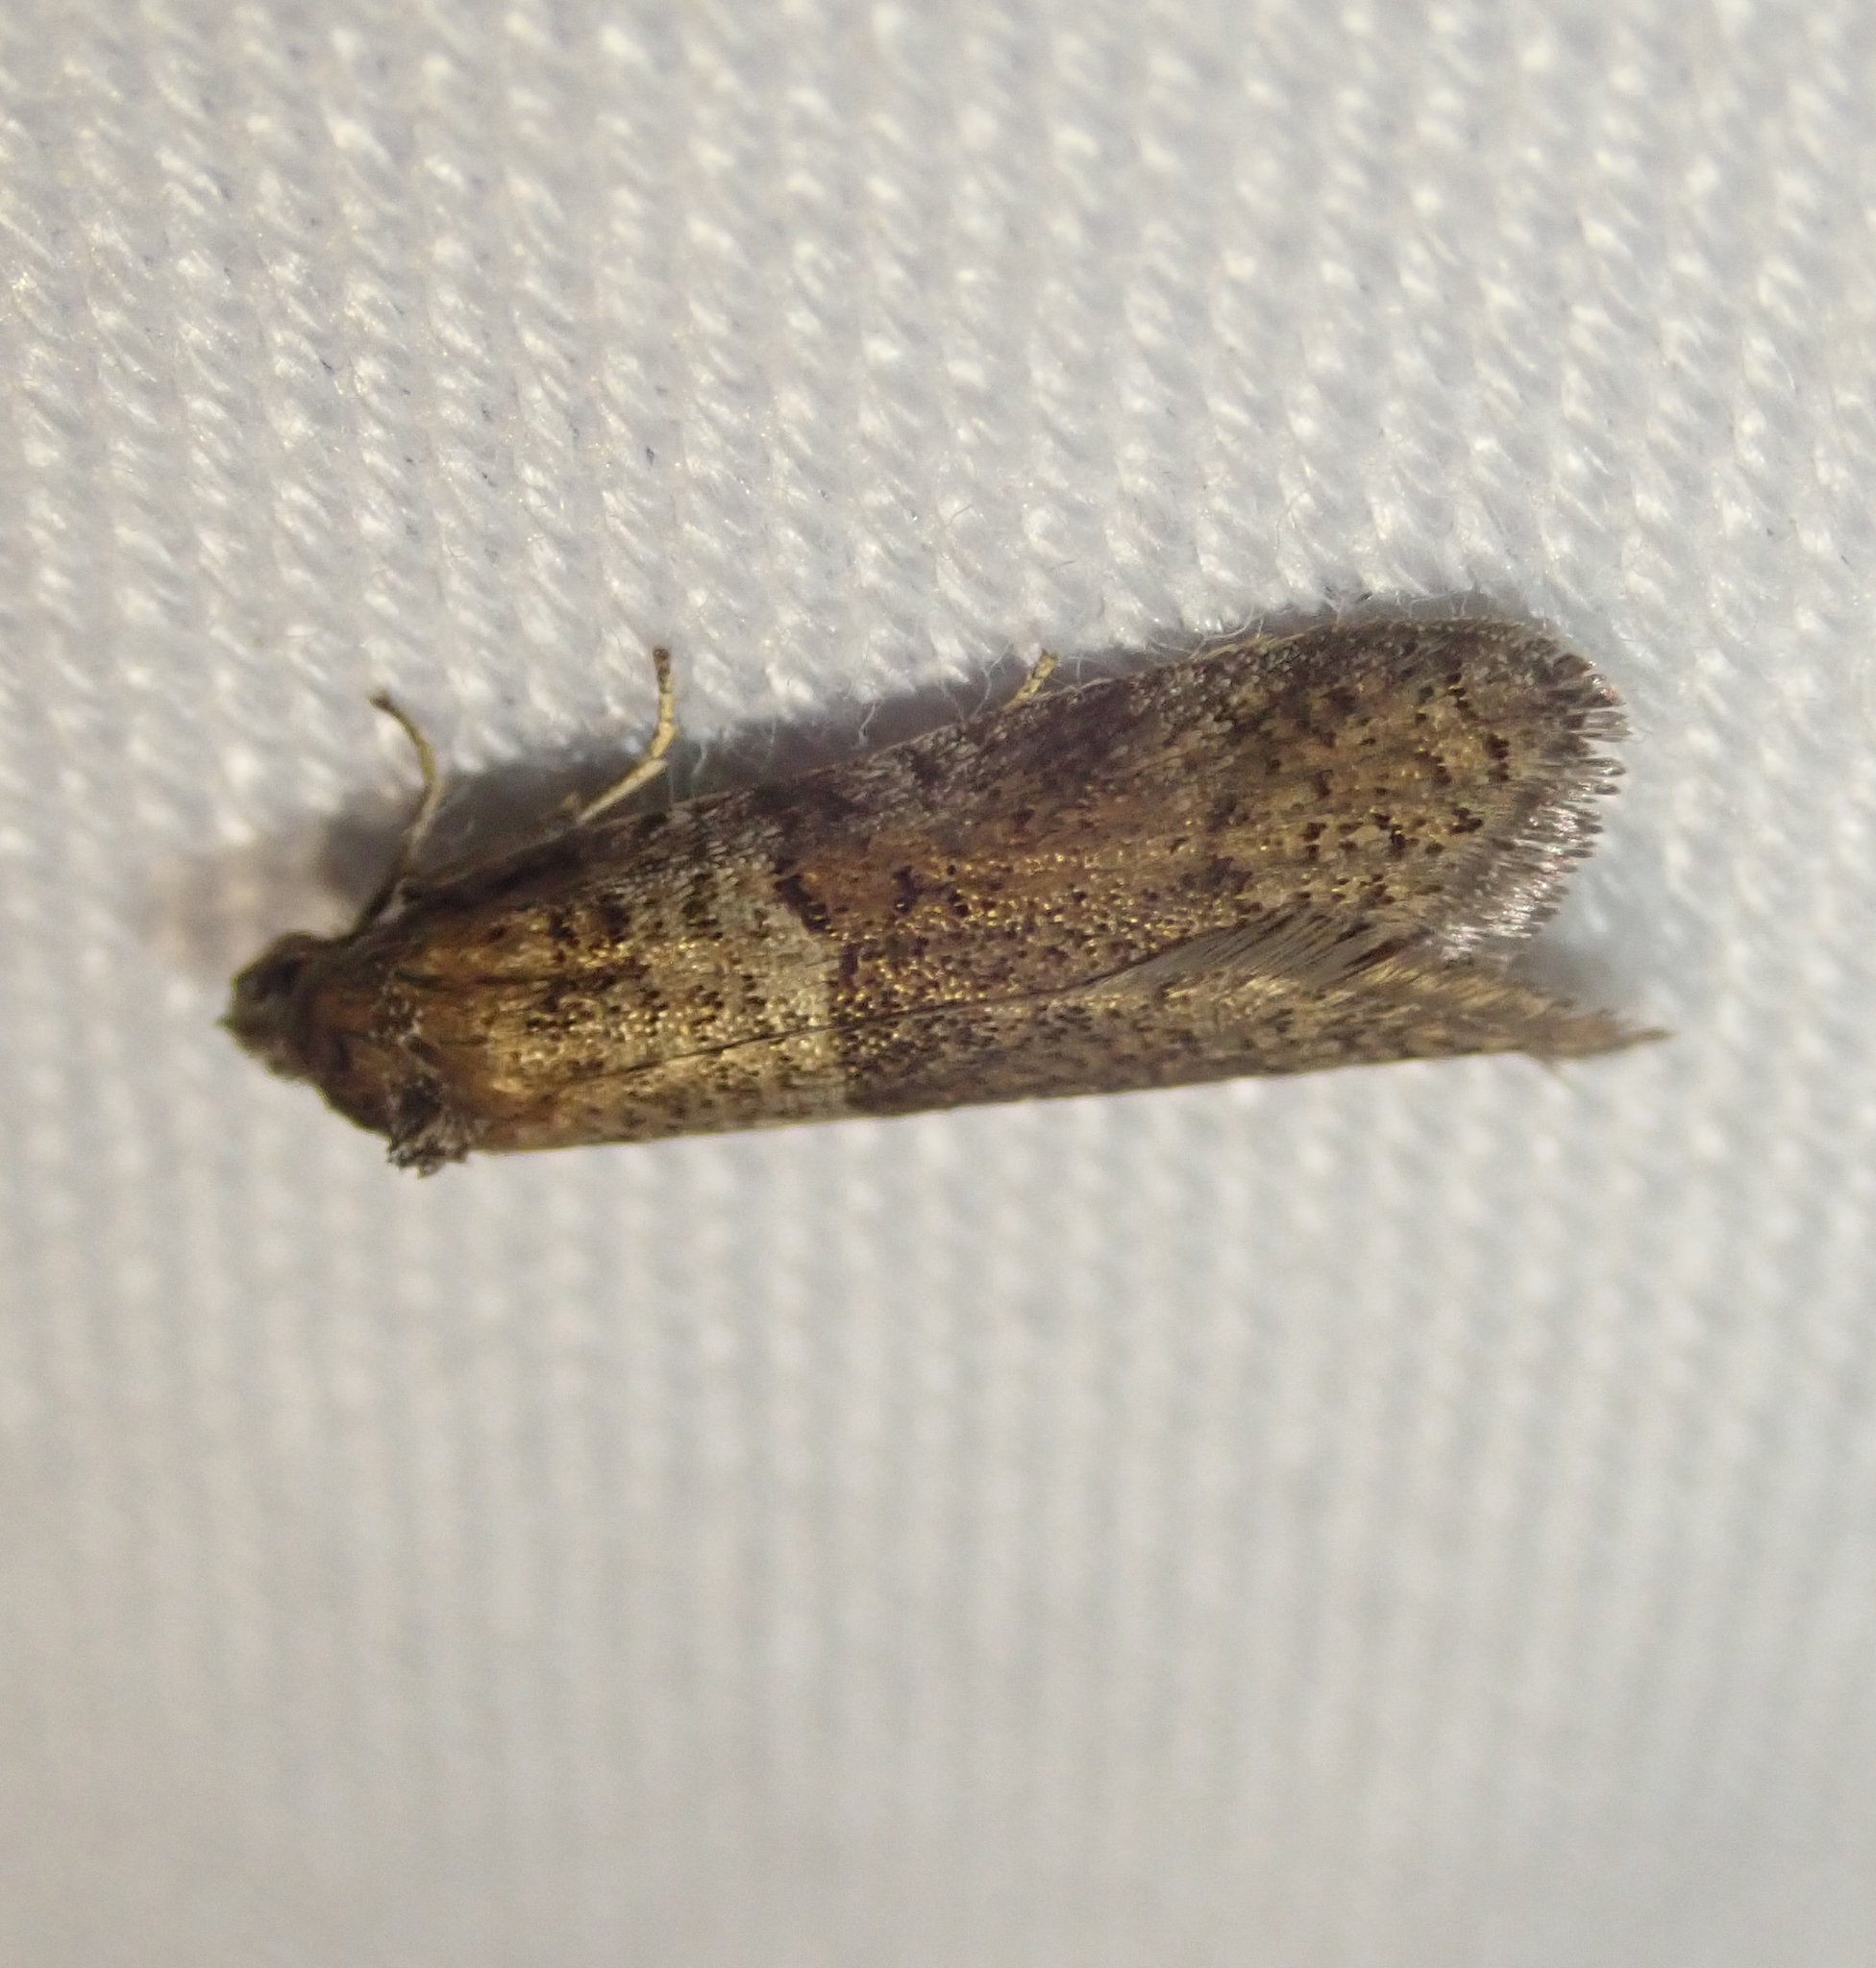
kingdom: Animalia
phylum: Arthropoda
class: Insecta
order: Lepidoptera
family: Tortricidae
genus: Tortricodes
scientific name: Tortricodes alternella
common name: Winter shade
